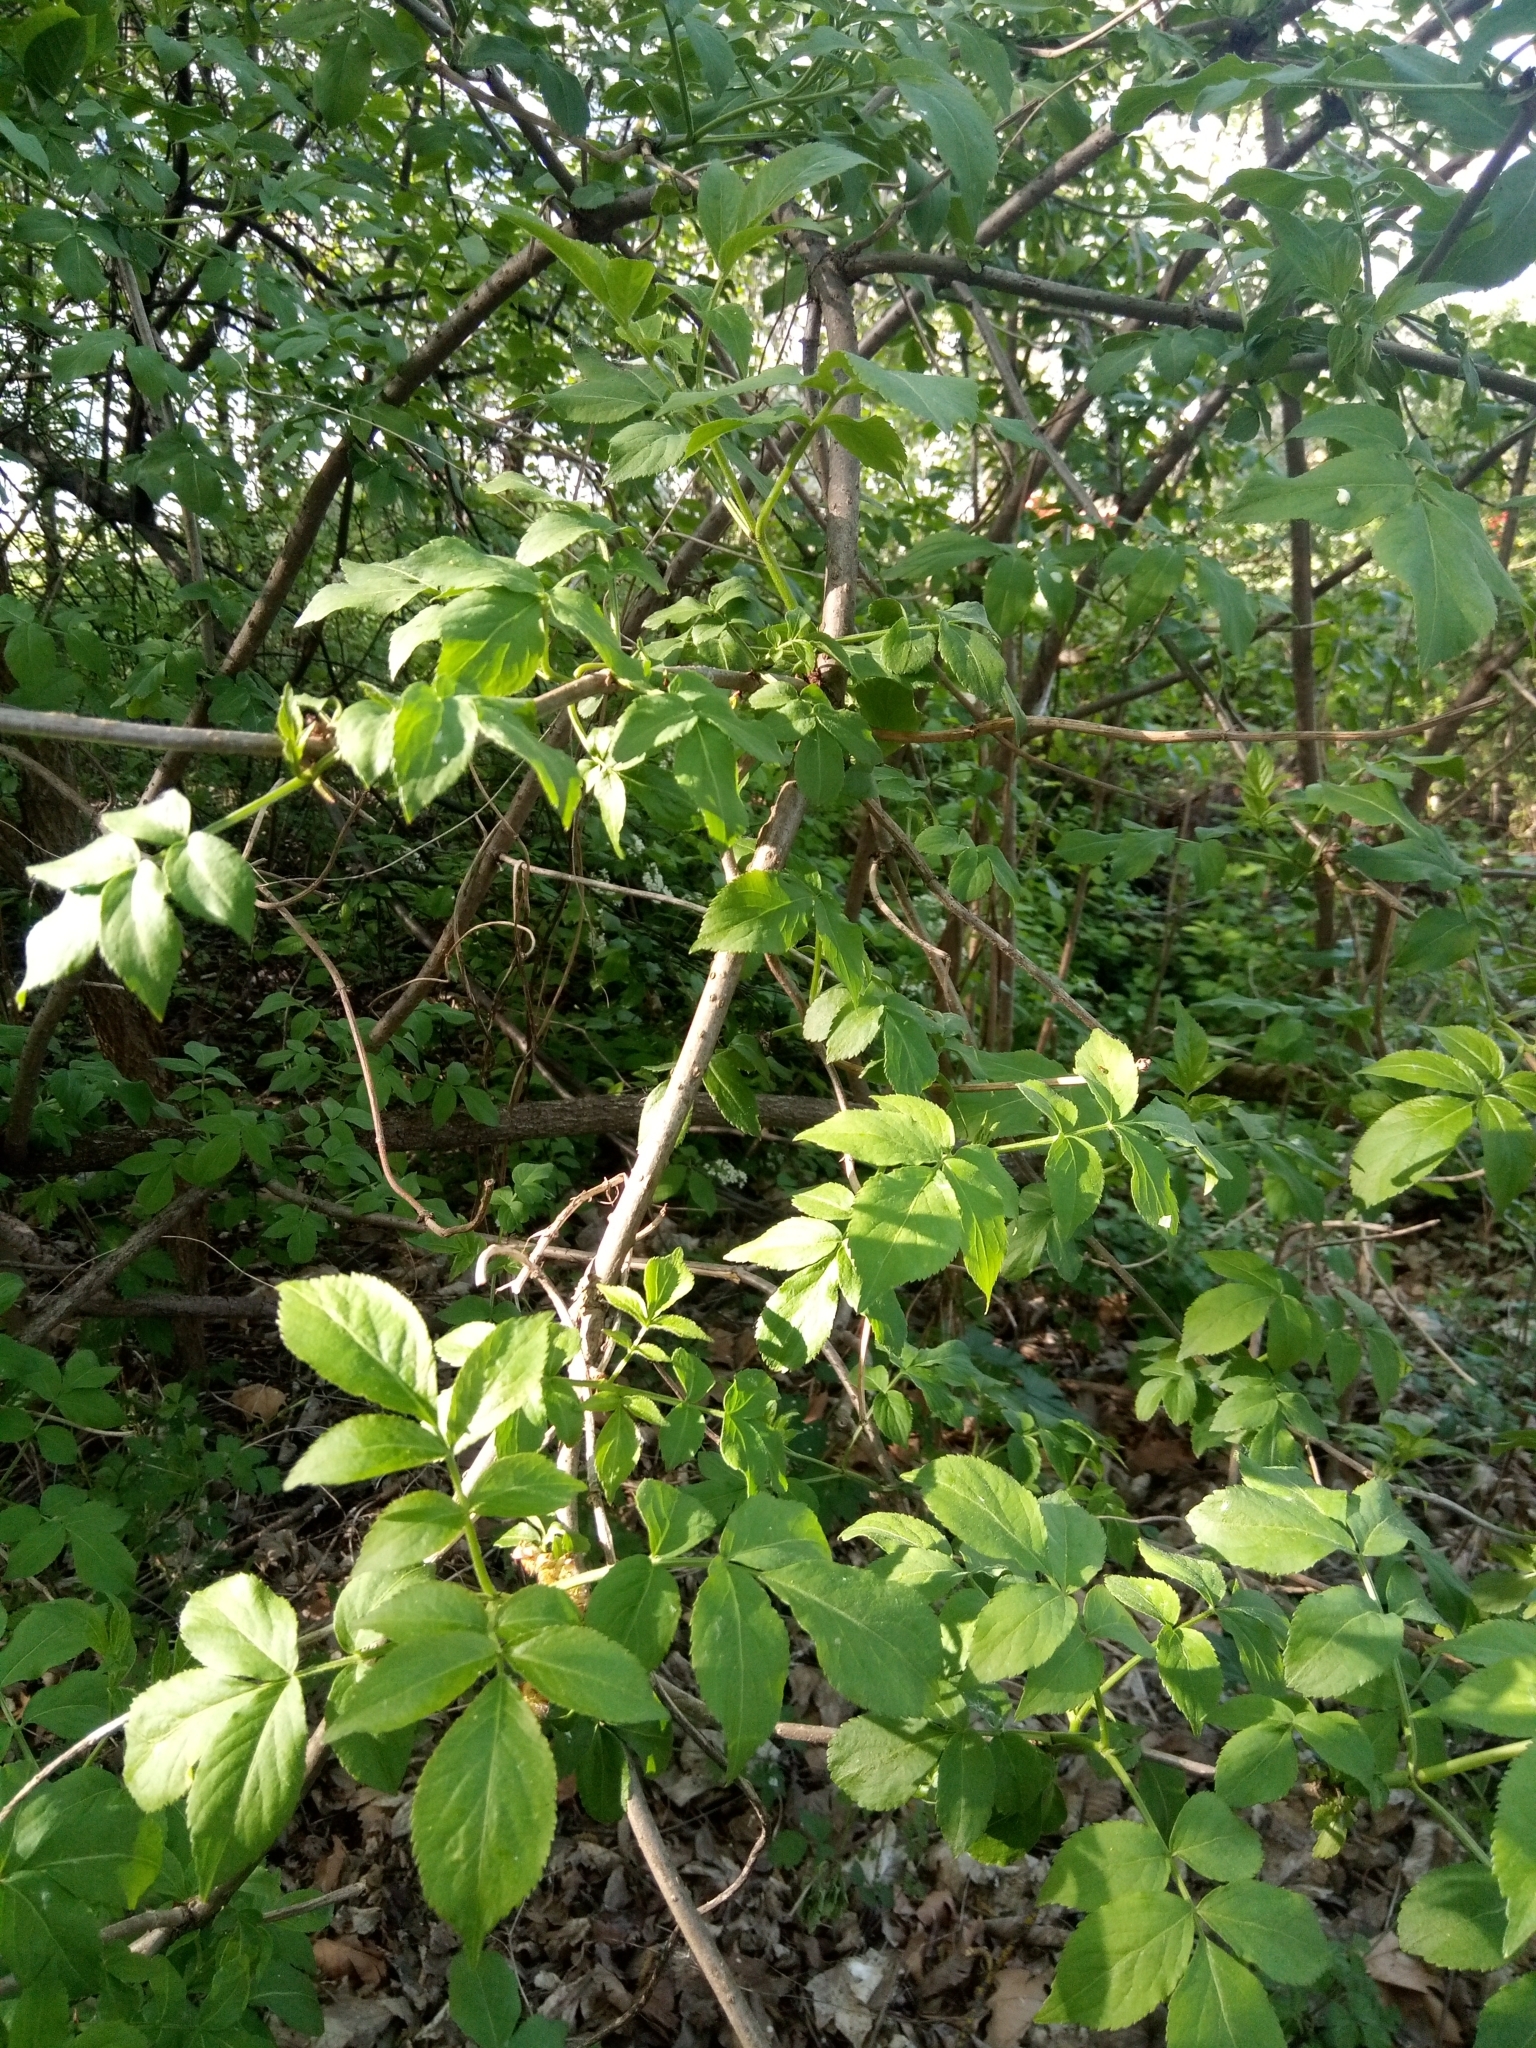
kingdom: Plantae
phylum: Tracheophyta
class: Magnoliopsida
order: Dipsacales
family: Viburnaceae
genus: Sambucus
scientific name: Sambucus nigra
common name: Elder
